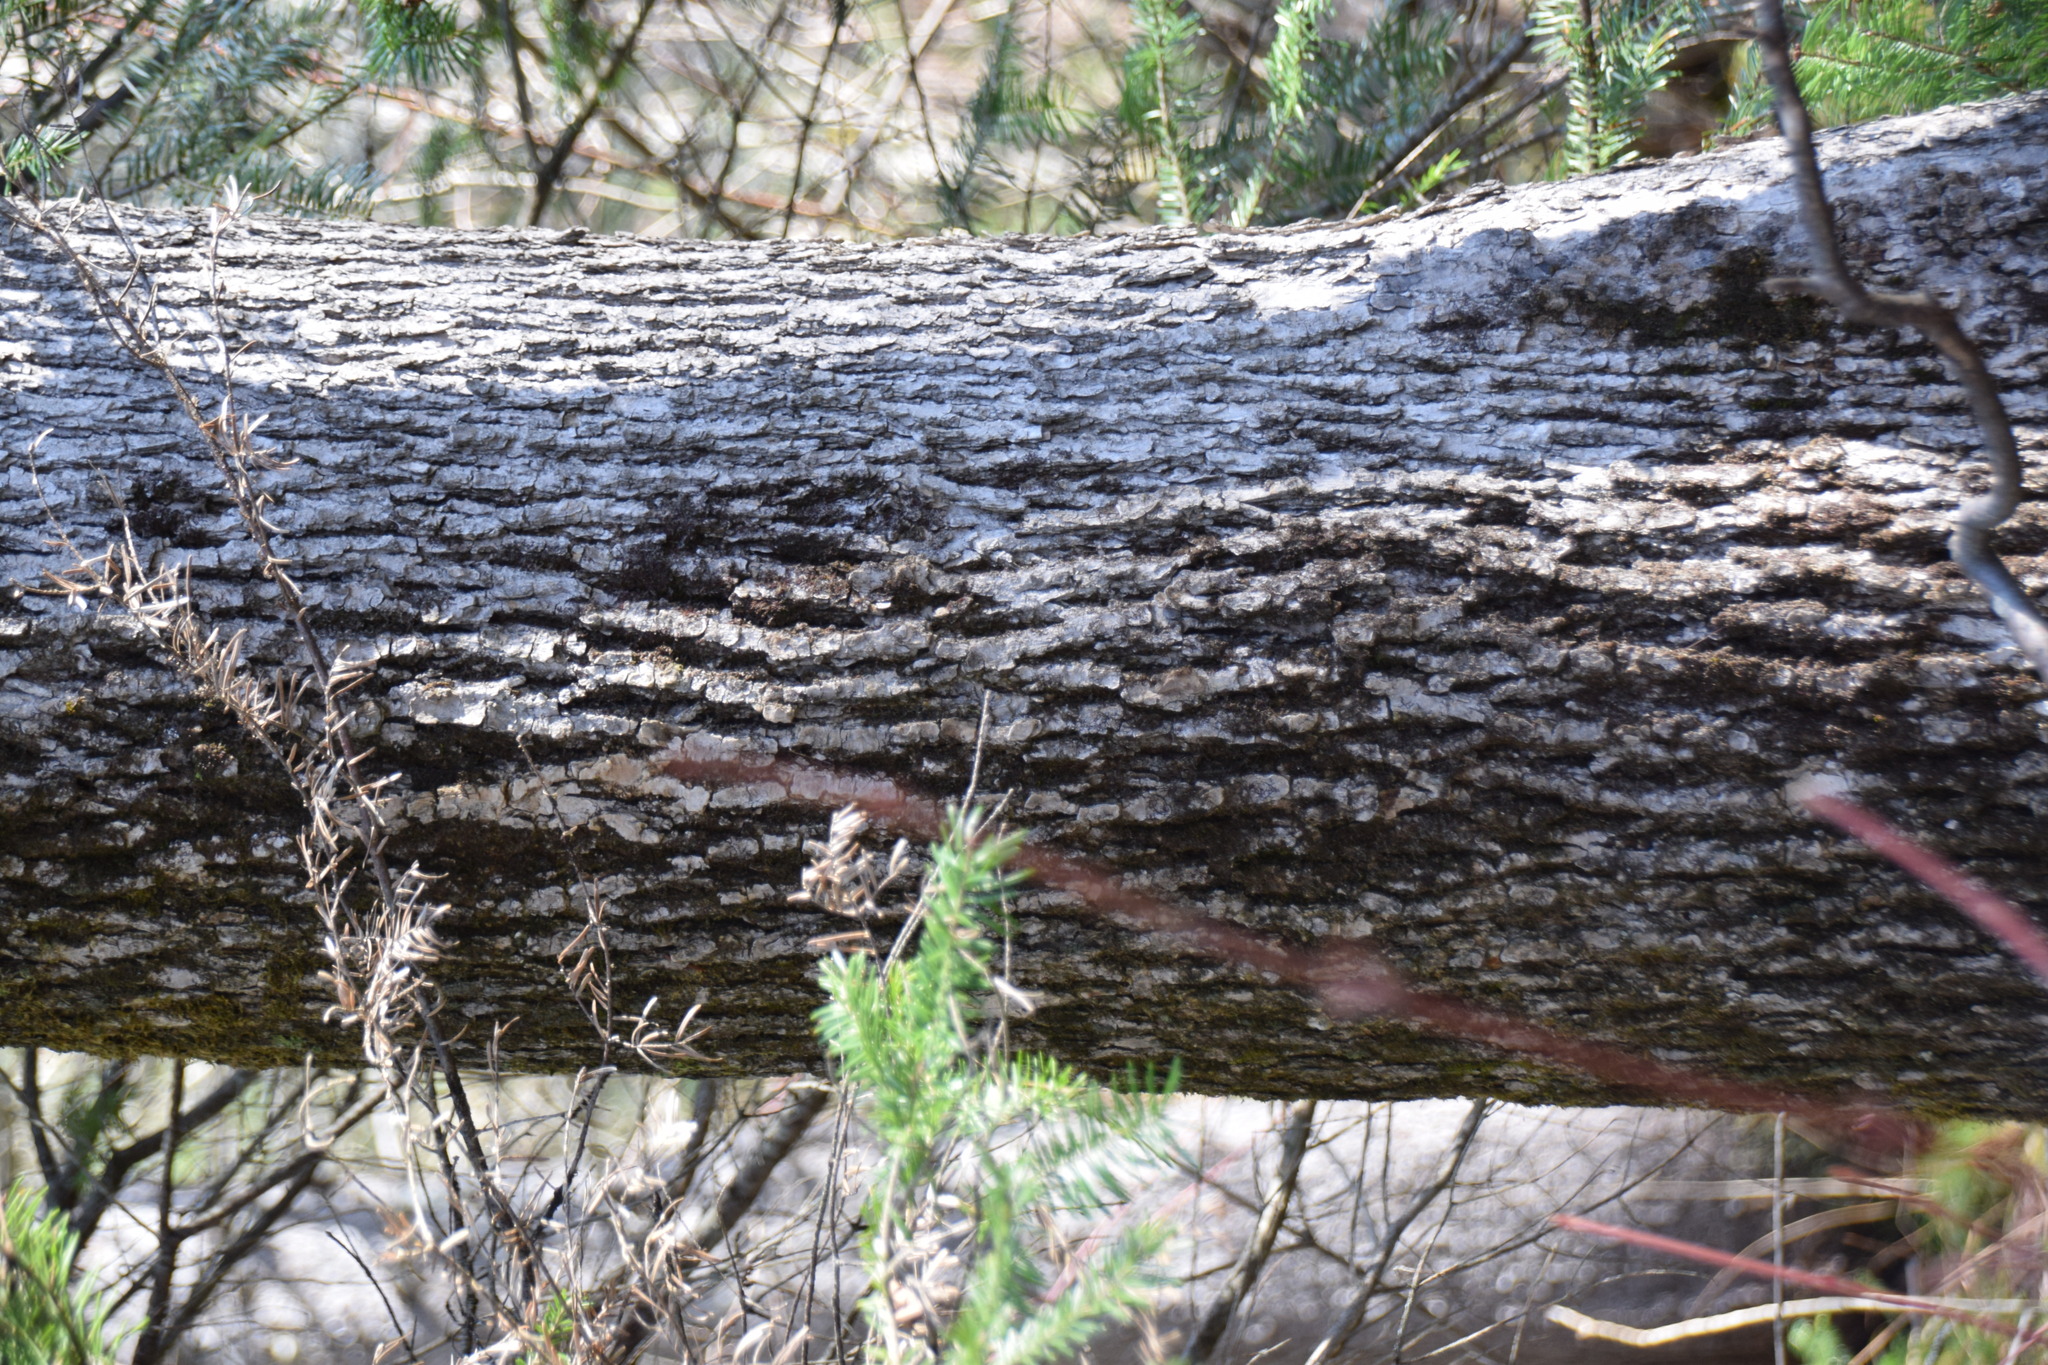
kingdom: Plantae
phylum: Tracheophyta
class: Magnoliopsida
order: Lamiales
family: Oleaceae
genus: Fraxinus
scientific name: Fraxinus nigra
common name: Black ash
